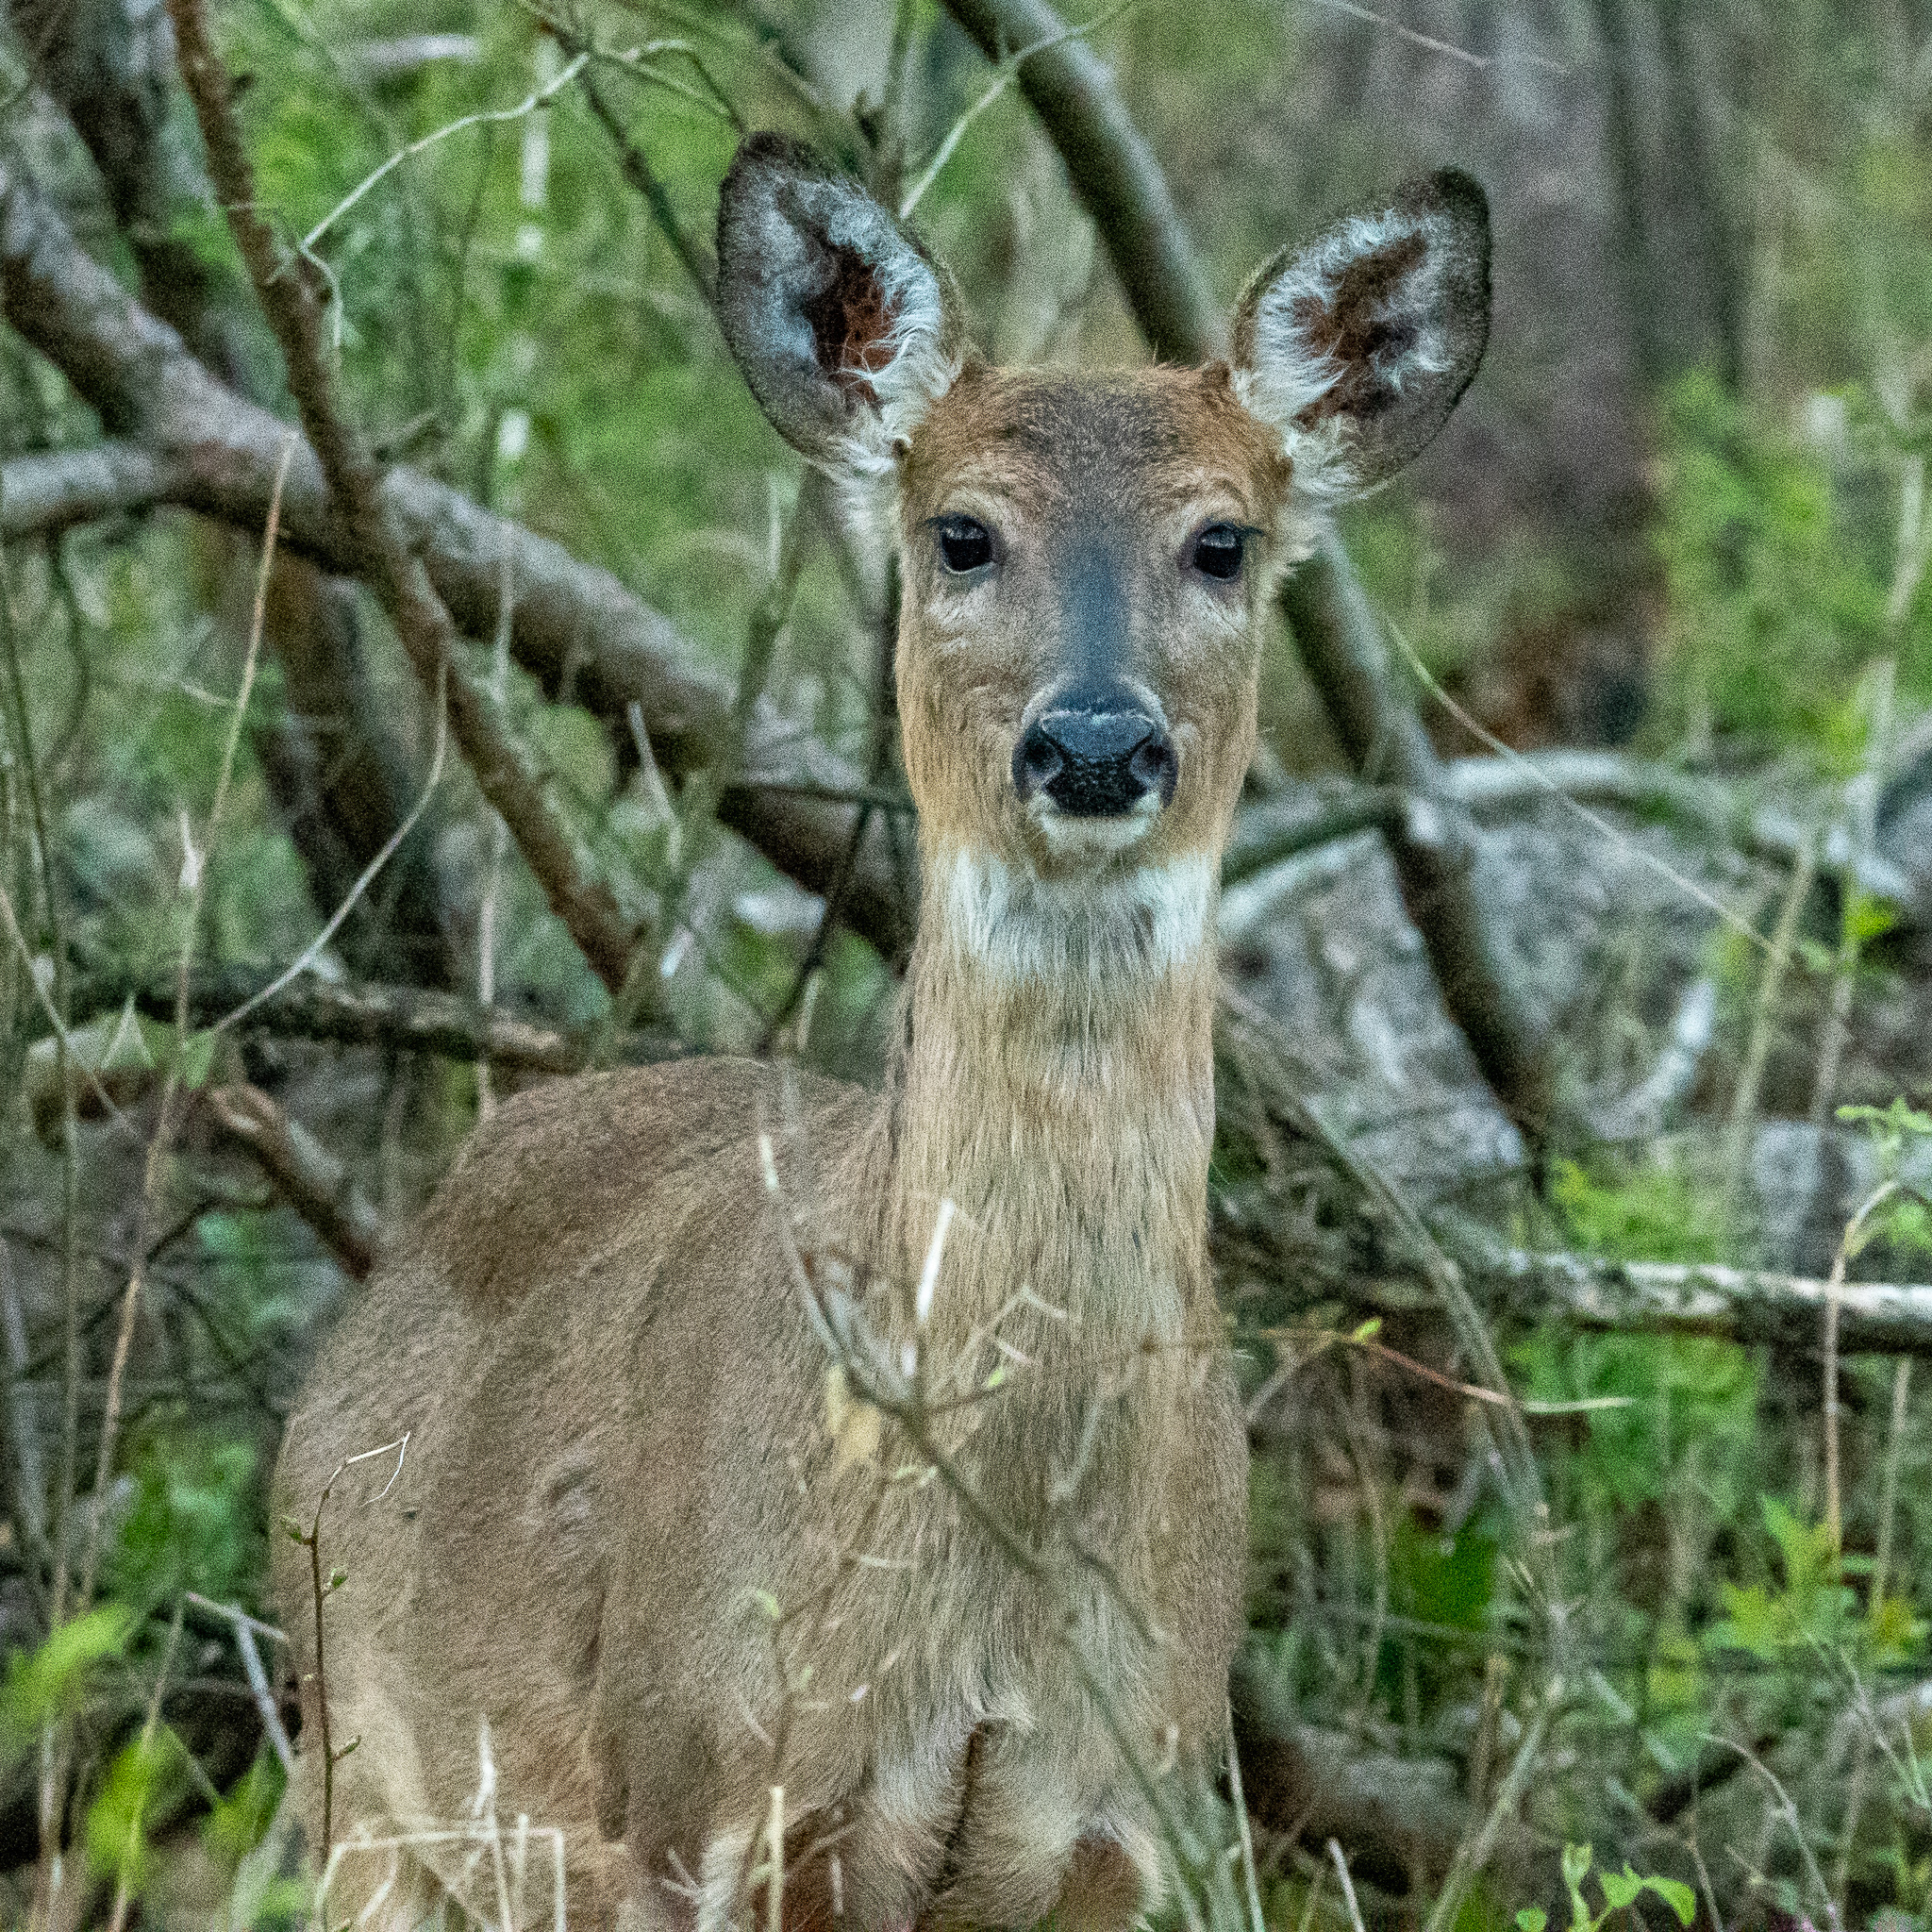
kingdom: Animalia
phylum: Chordata
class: Mammalia
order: Artiodactyla
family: Cervidae
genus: Odocoileus
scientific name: Odocoileus virginianus
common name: White-tailed deer
